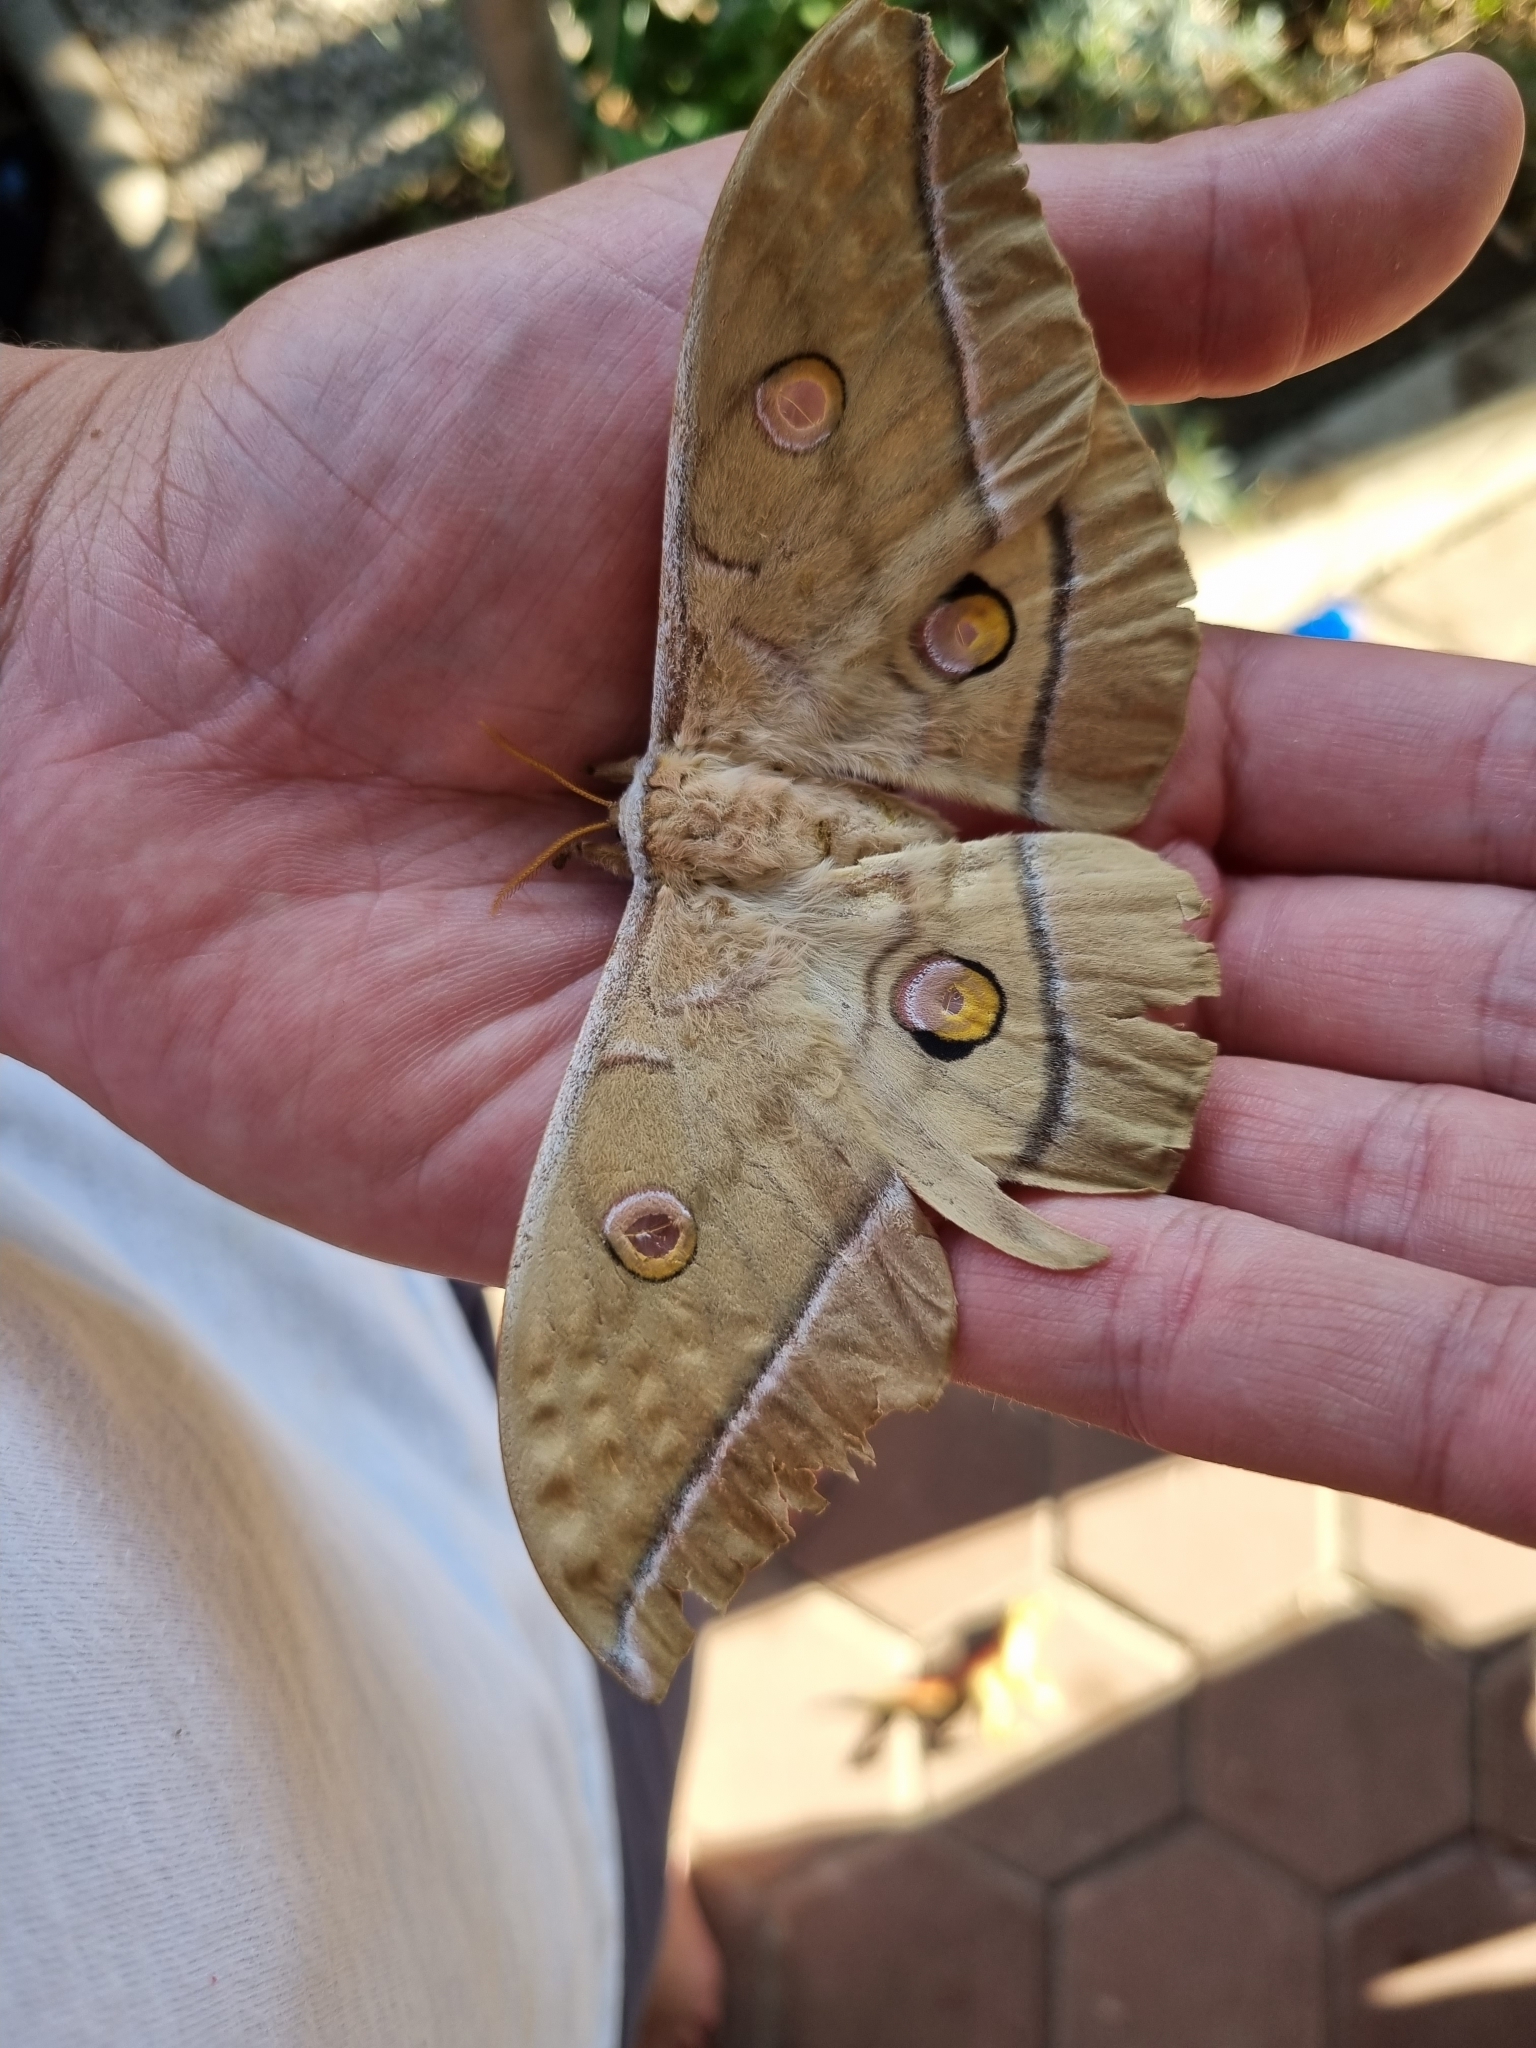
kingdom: Animalia
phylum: Arthropoda
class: Insecta
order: Lepidoptera
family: Saturniidae
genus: Antheraea
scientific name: Antheraea yamamai
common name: Japanese oak silk moth
